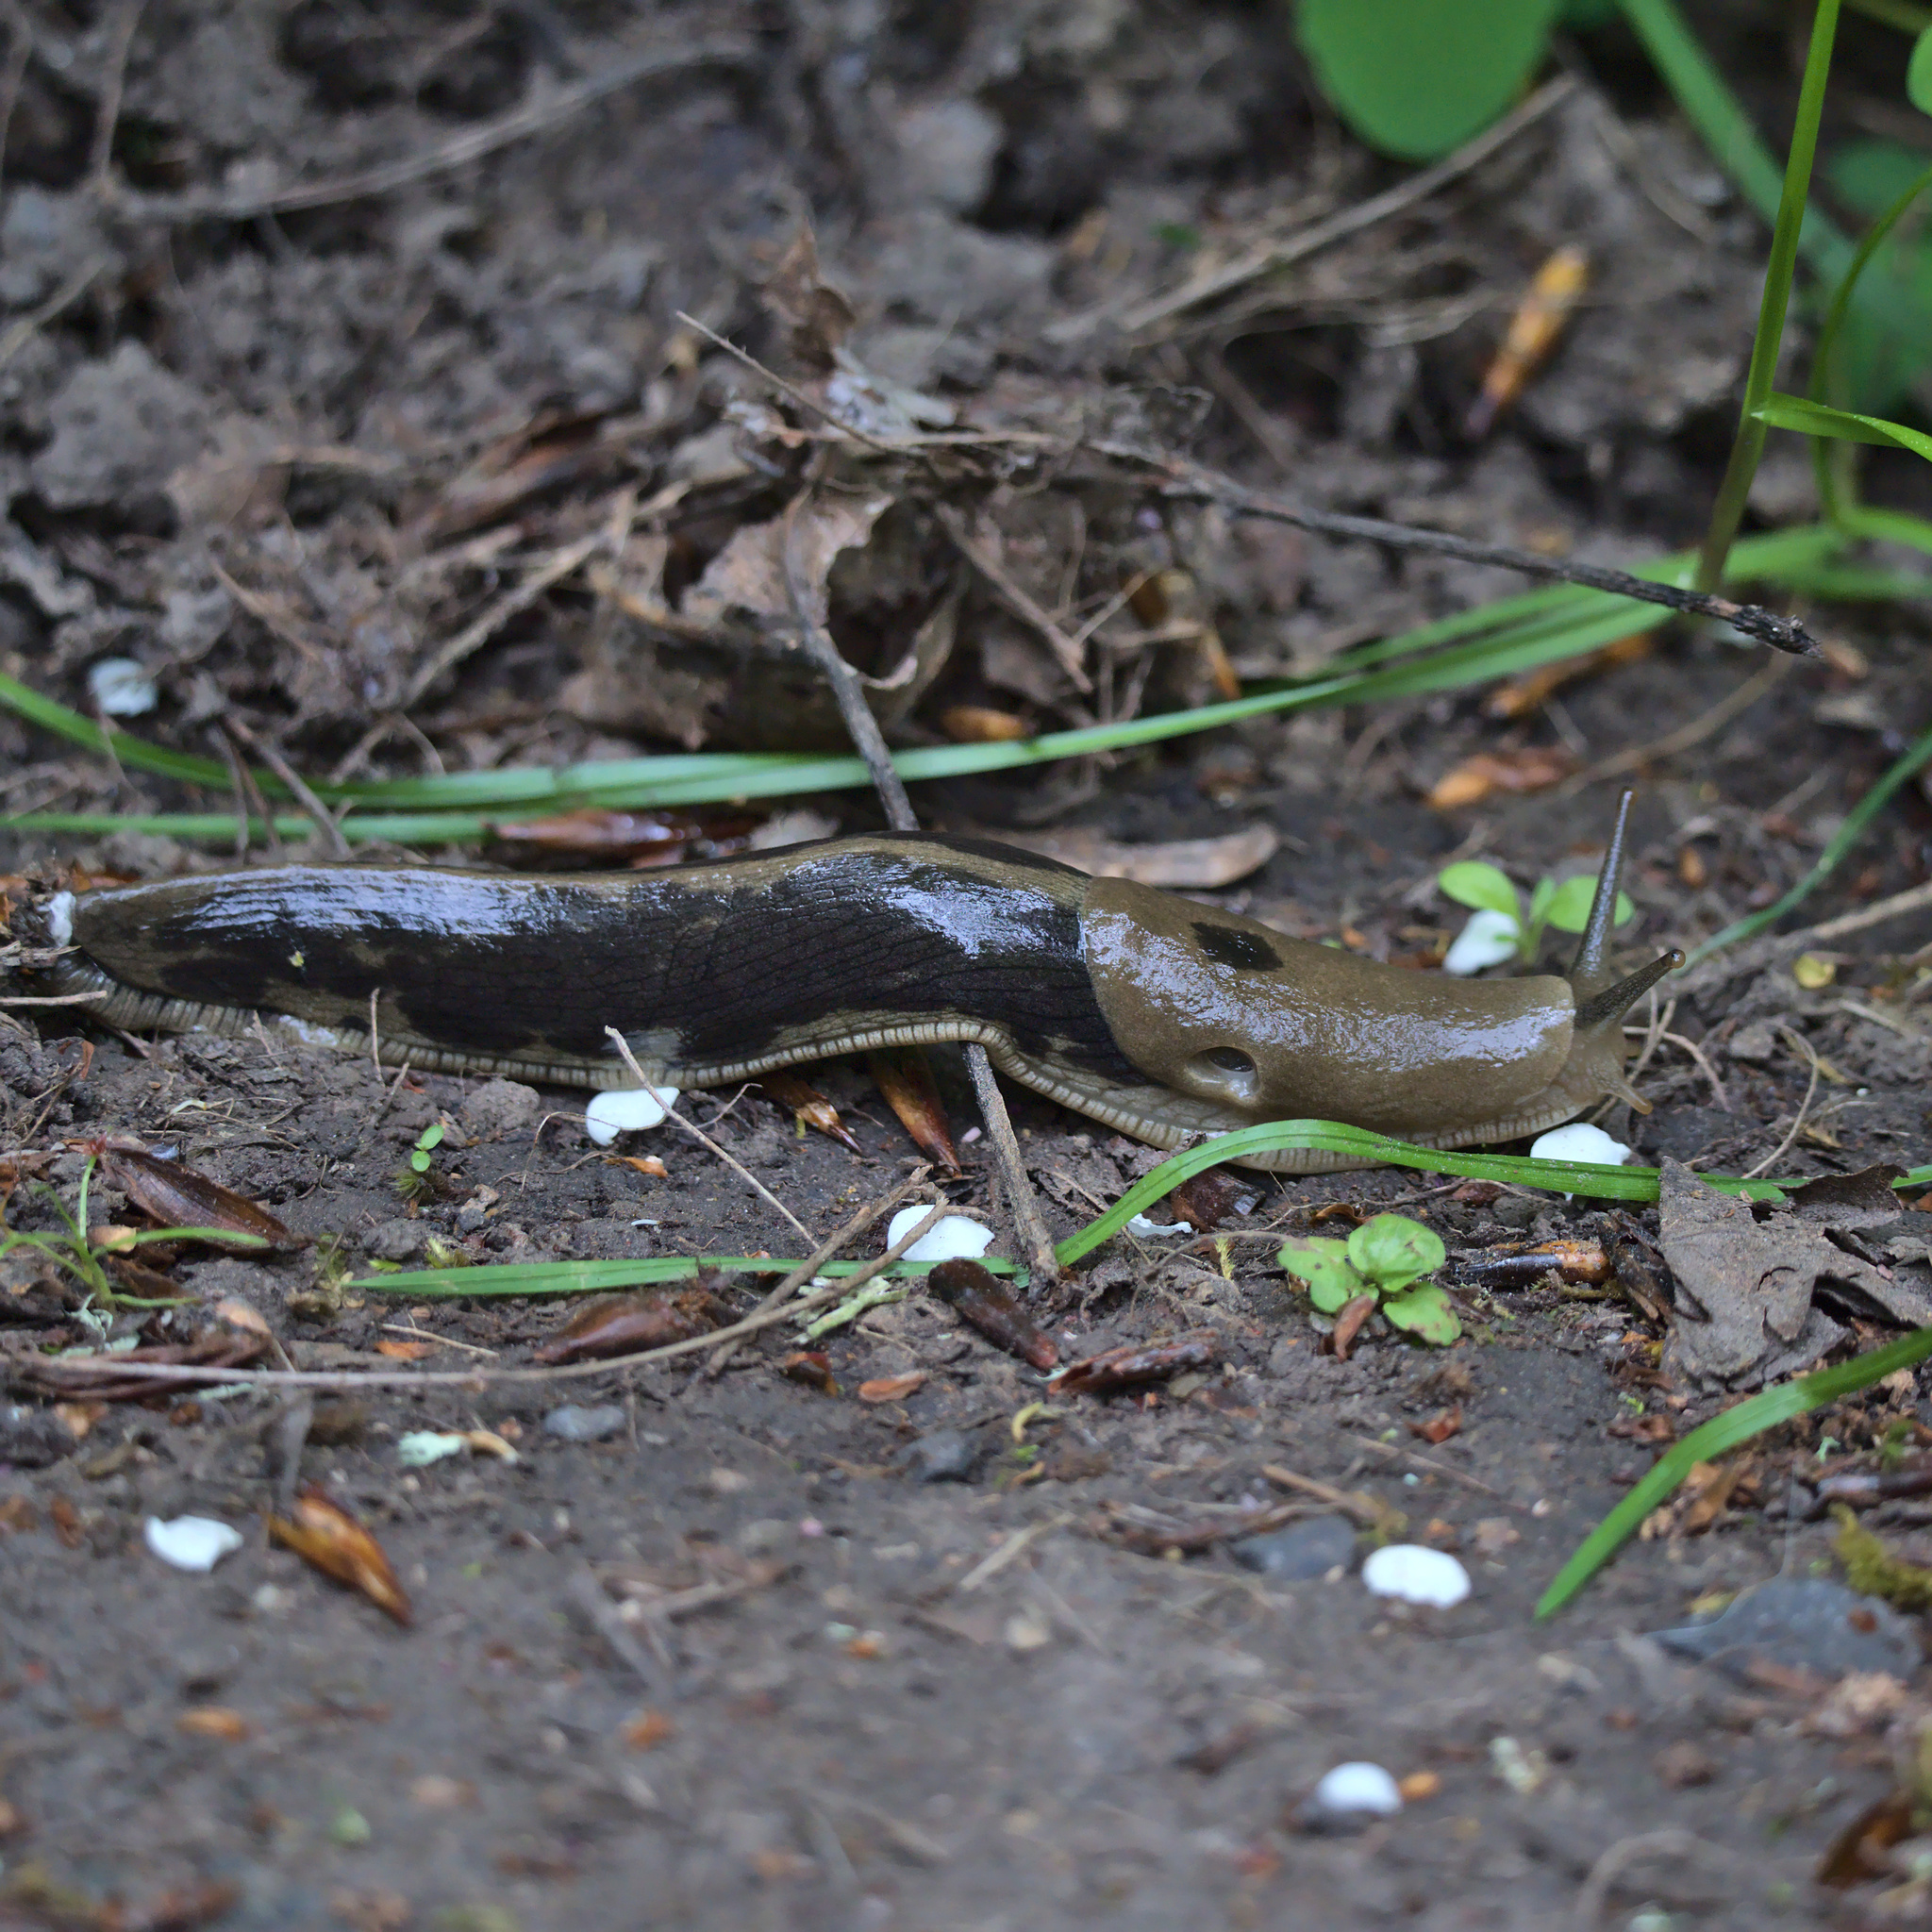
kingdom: Animalia
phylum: Mollusca
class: Gastropoda
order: Stylommatophora
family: Ariolimacidae
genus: Ariolimax
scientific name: Ariolimax columbianus
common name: Pacific banana slug
